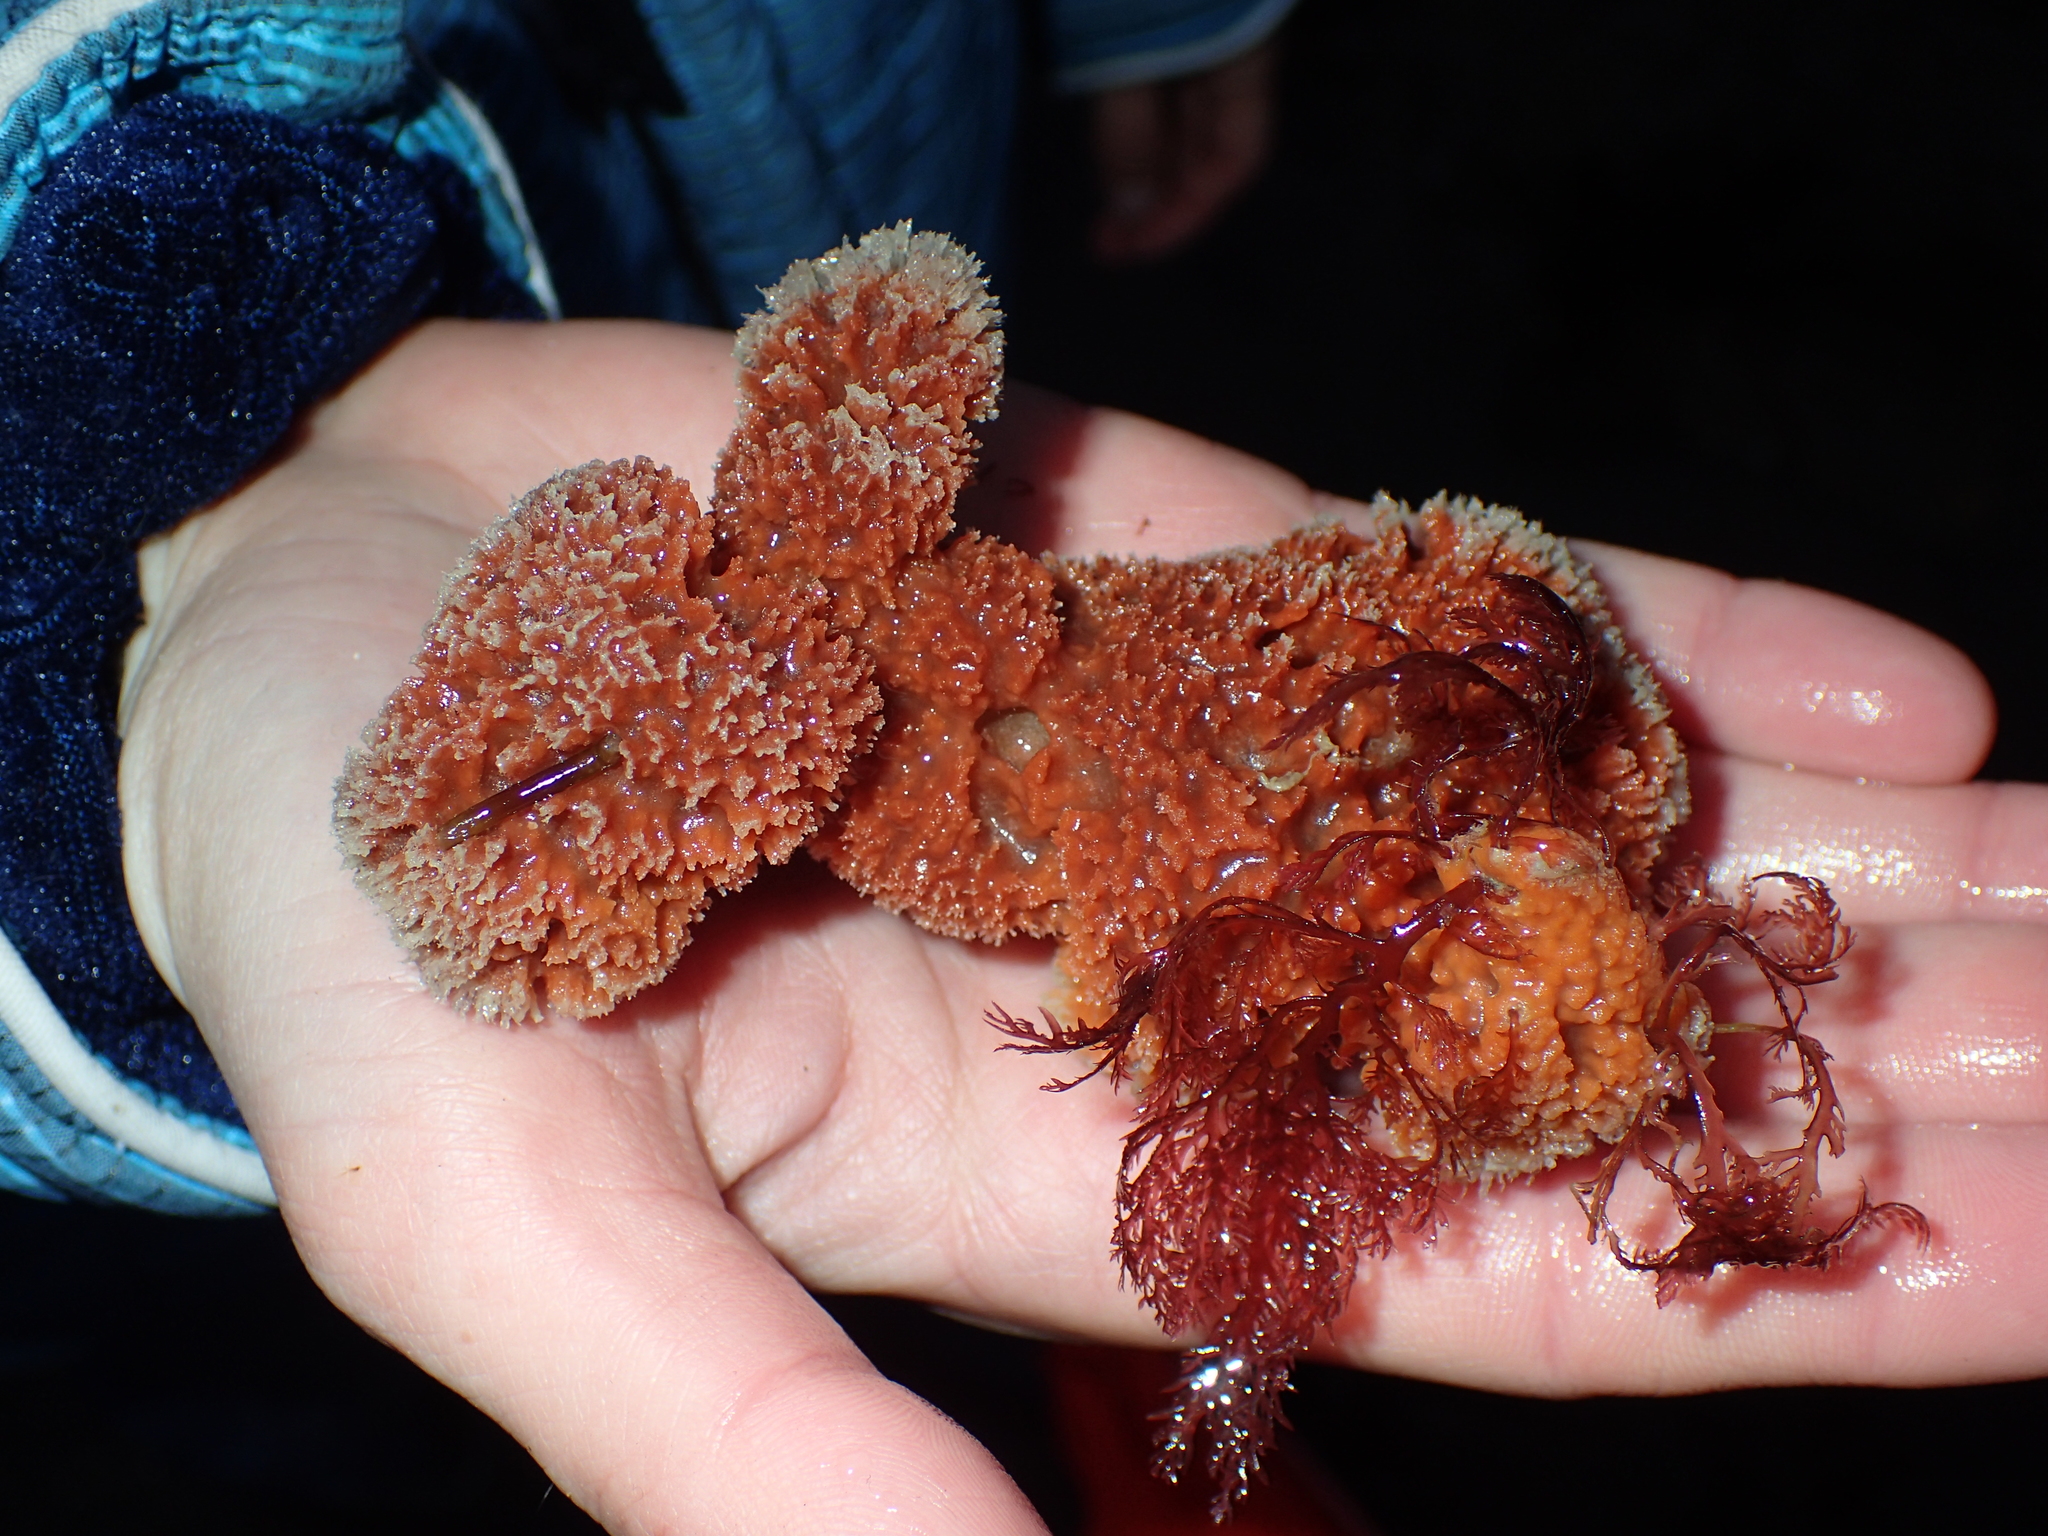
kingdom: Animalia
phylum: Porifera
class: Demospongiae
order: Suberitida
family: Halichondriidae
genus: Hymeniacidon
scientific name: Hymeniacidon perlevis
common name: Crumb-of-bread sponge
